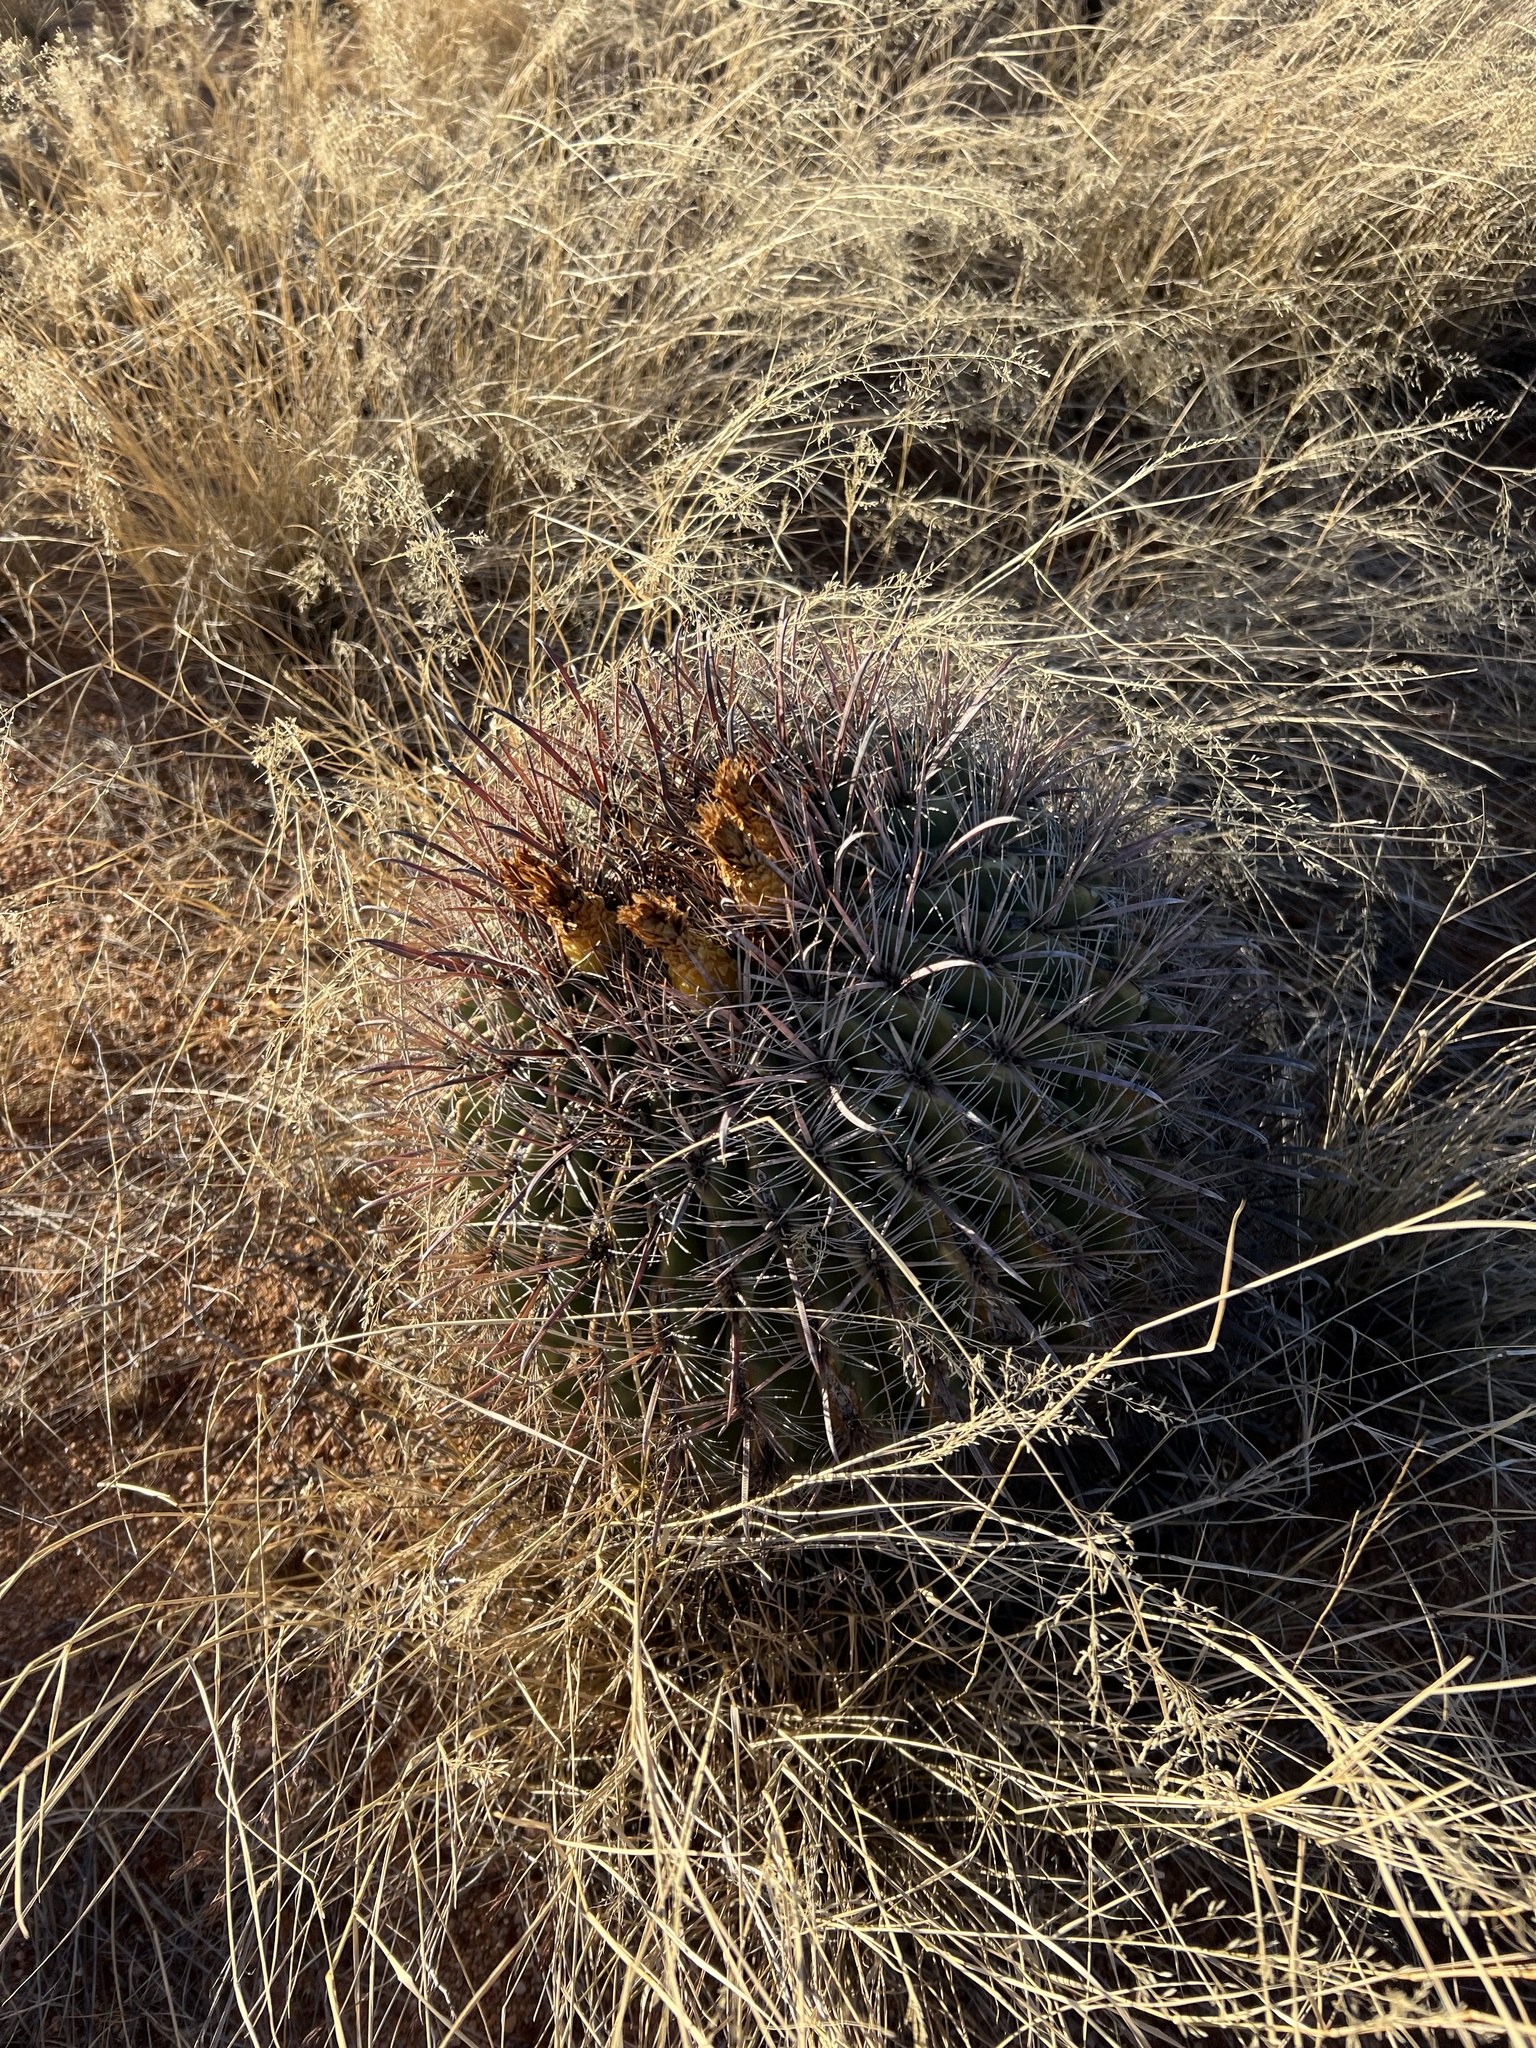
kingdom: Plantae
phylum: Tracheophyta
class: Magnoliopsida
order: Caryophyllales
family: Cactaceae
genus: Ferocactus
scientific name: Ferocactus wislizeni
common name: Candy barrel cactus
